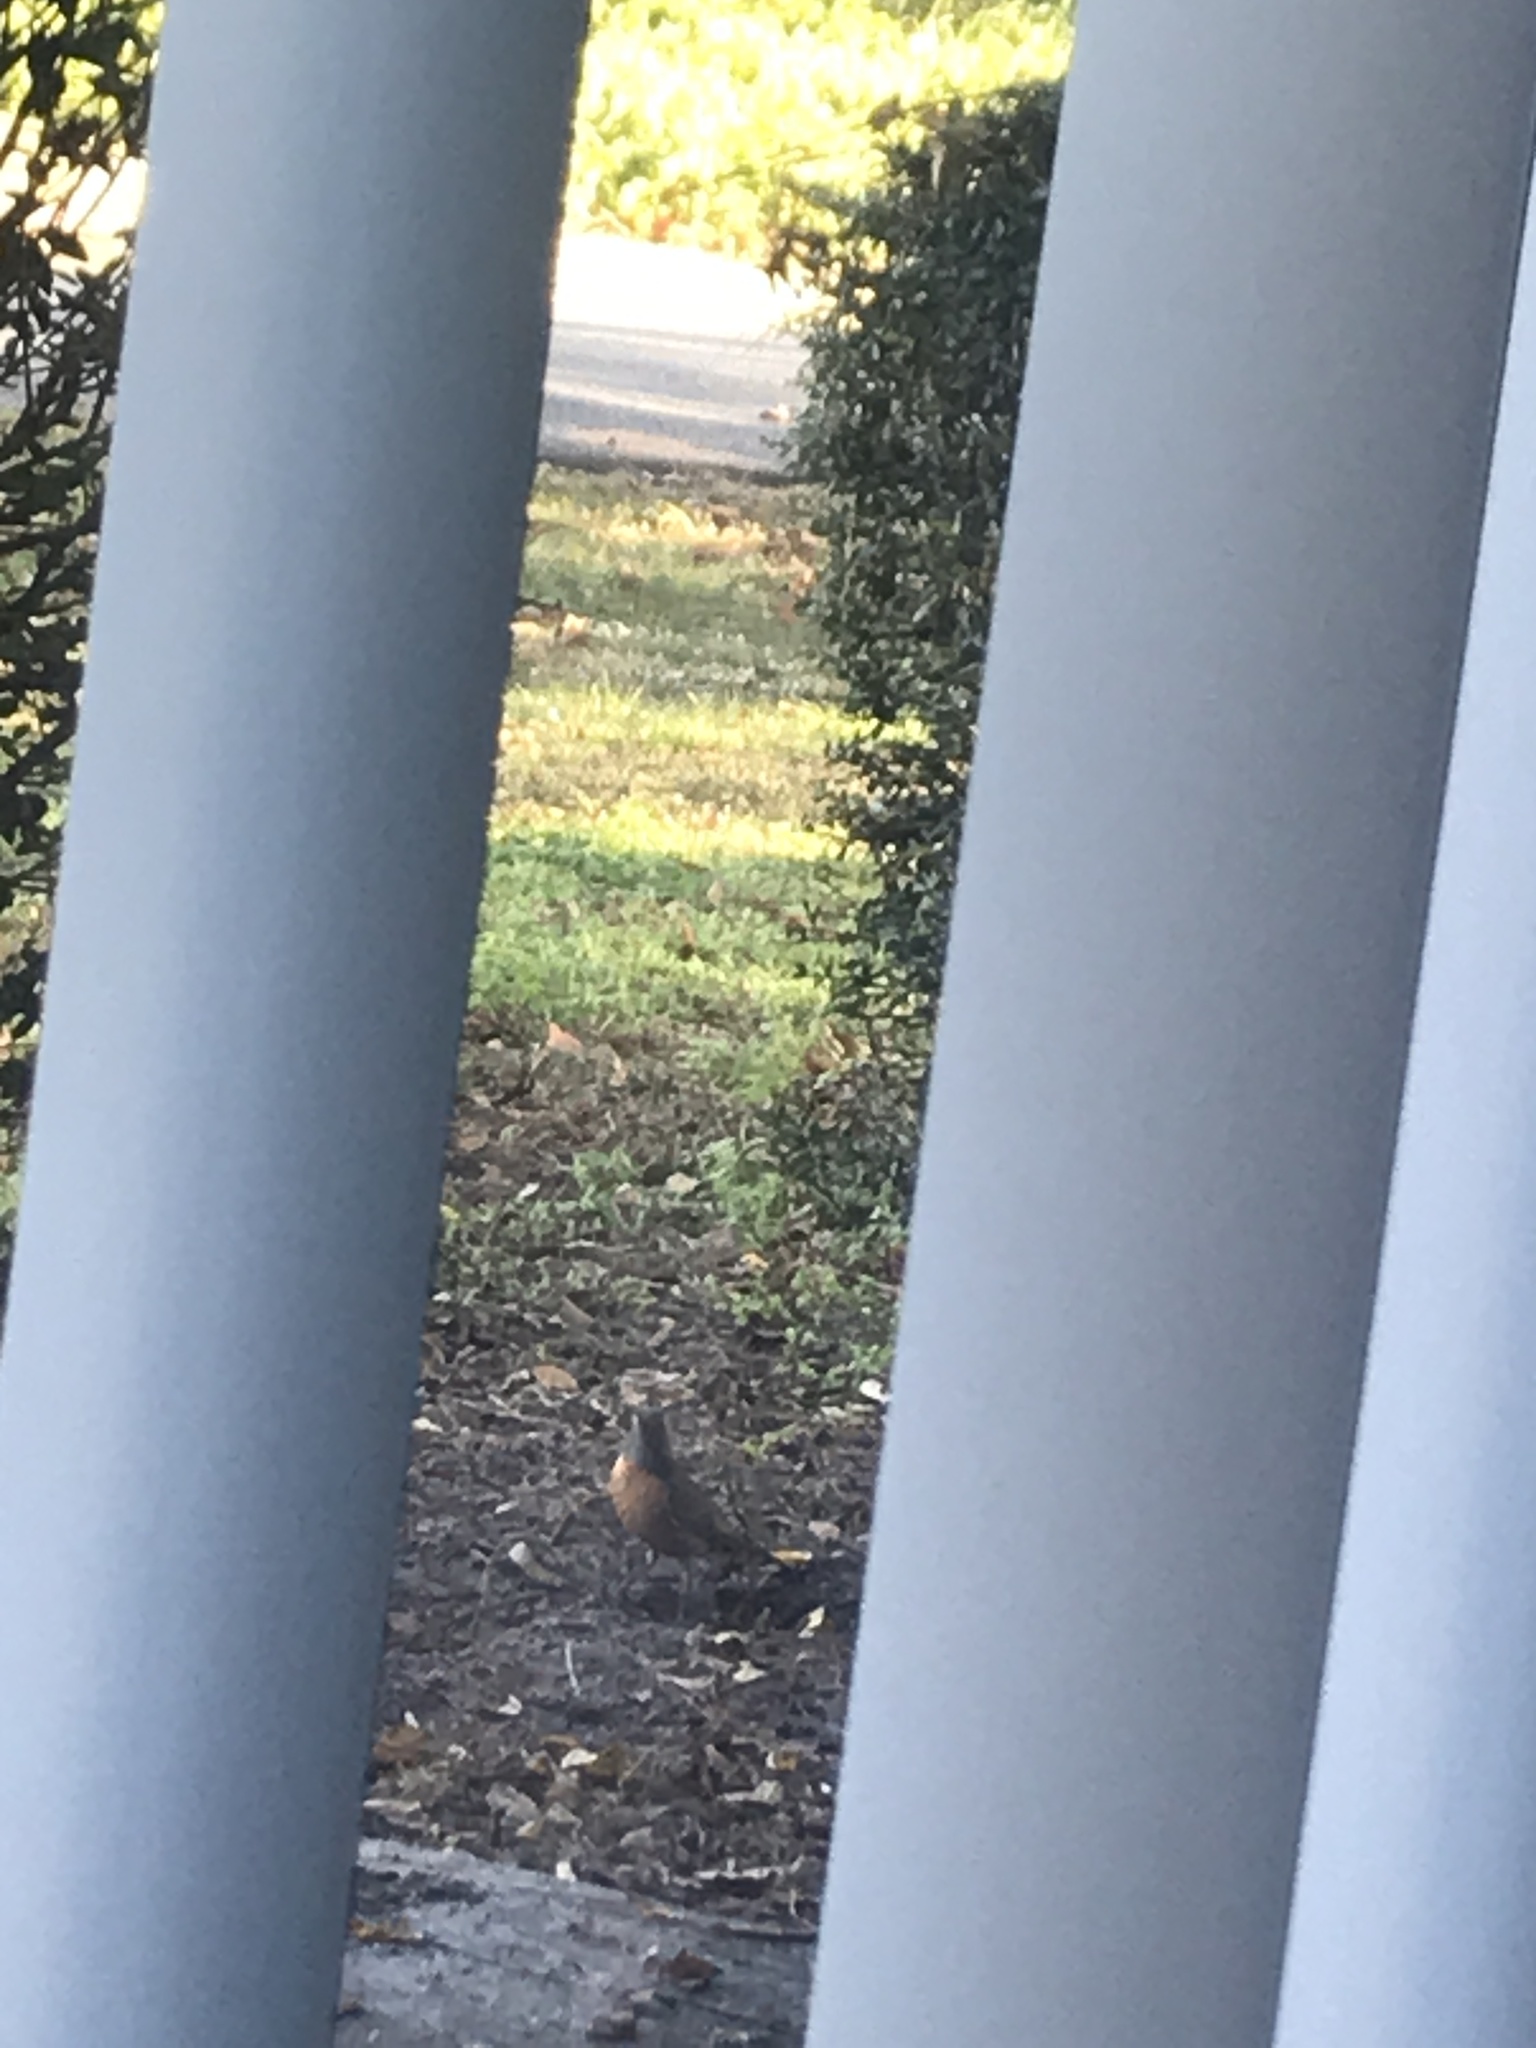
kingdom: Animalia
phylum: Chordata
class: Aves
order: Passeriformes
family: Turdidae
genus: Turdus
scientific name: Turdus migratorius
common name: American robin
